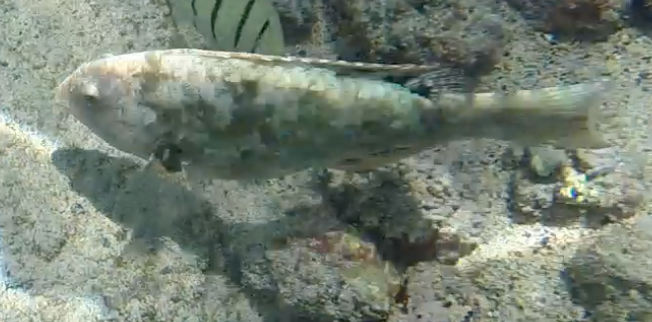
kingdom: Animalia
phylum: Chordata
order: Perciformes
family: Scaridae
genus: Calotomus
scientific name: Calotomus carolinus
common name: Bucktooth
